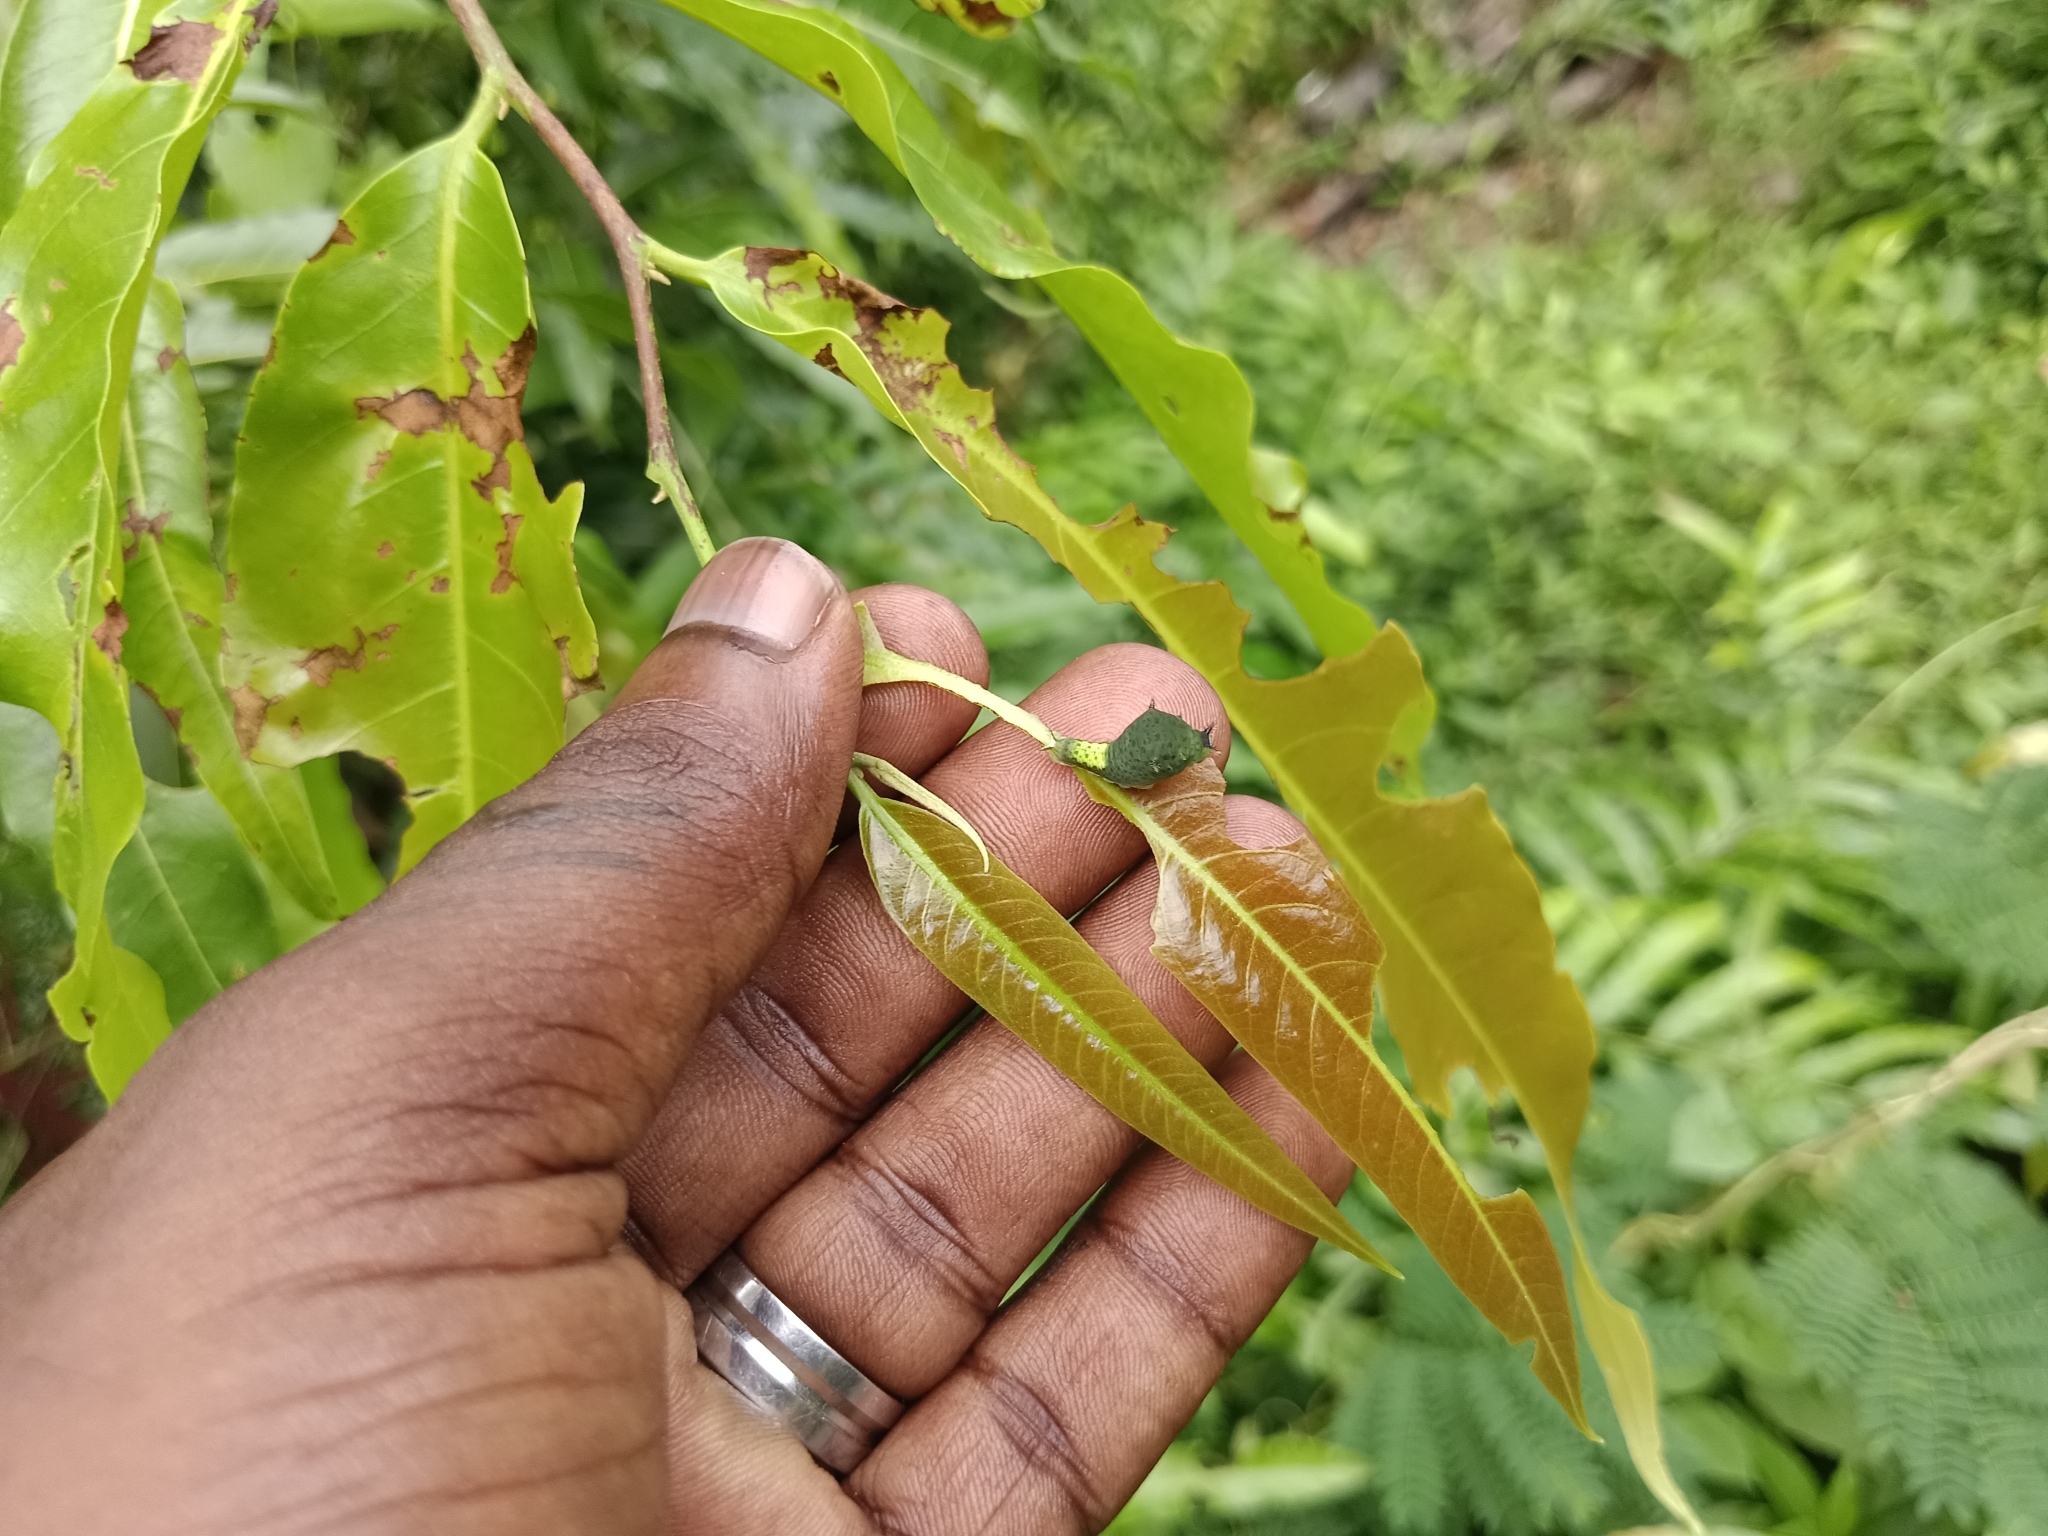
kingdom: Animalia
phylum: Arthropoda
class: Insecta
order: Lepidoptera
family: Papilionidae
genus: Graphium
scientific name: Graphium agamemnon
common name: Tailed jay
